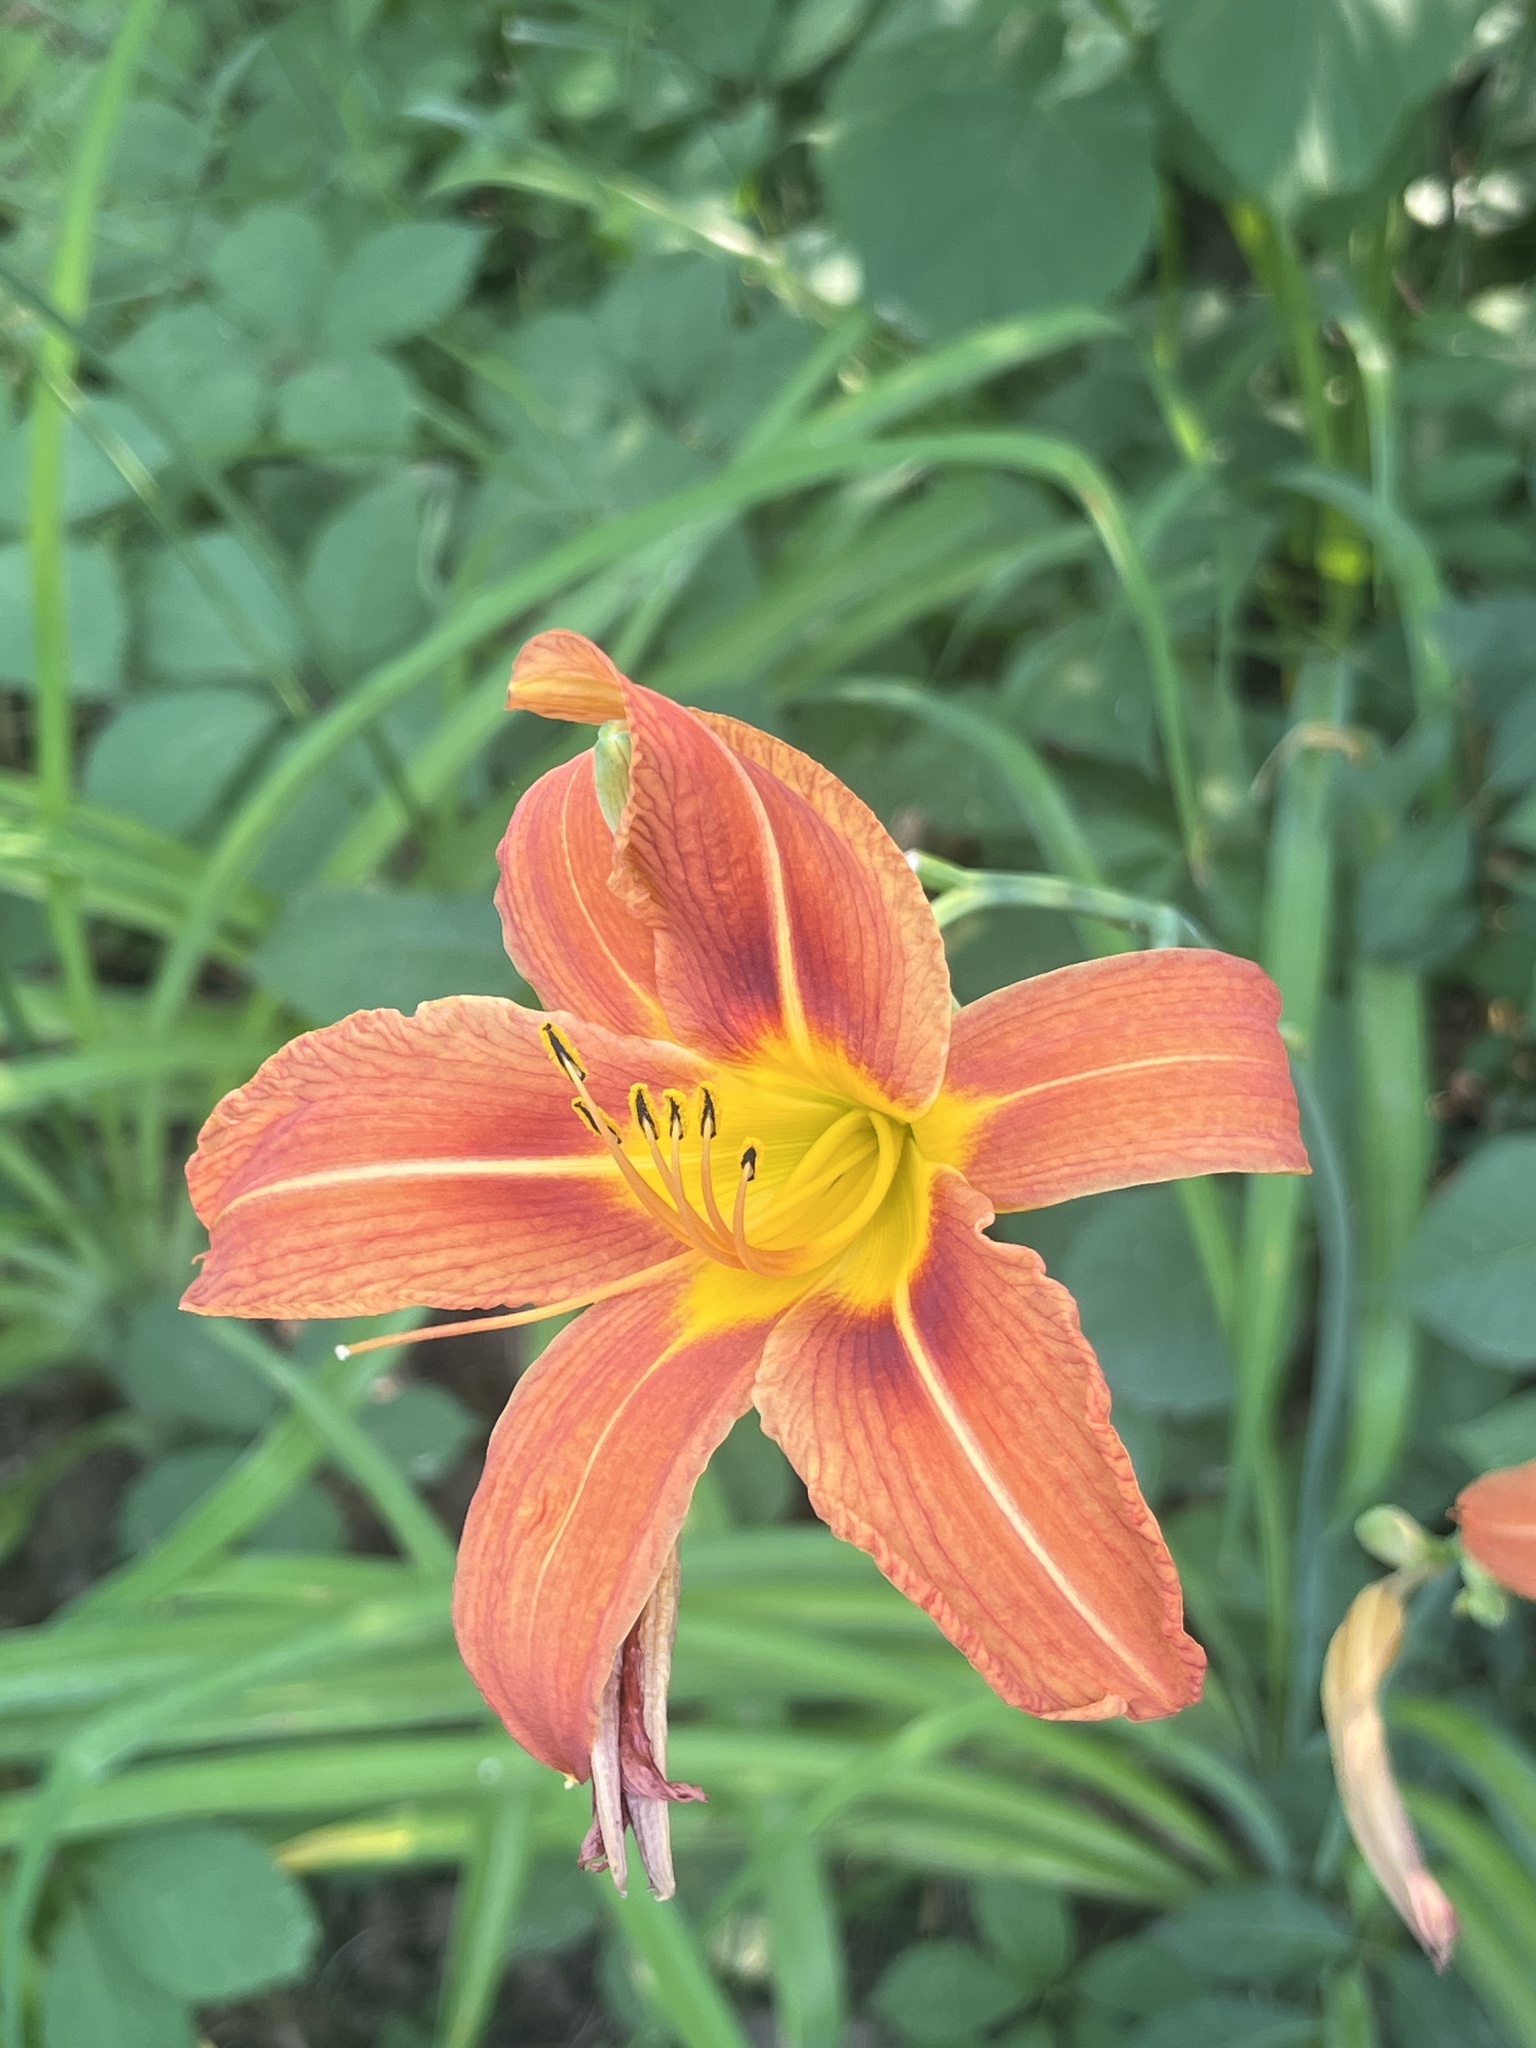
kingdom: Plantae
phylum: Tracheophyta
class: Liliopsida
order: Asparagales
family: Asphodelaceae
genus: Hemerocallis
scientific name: Hemerocallis fulva
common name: Orange day-lily
